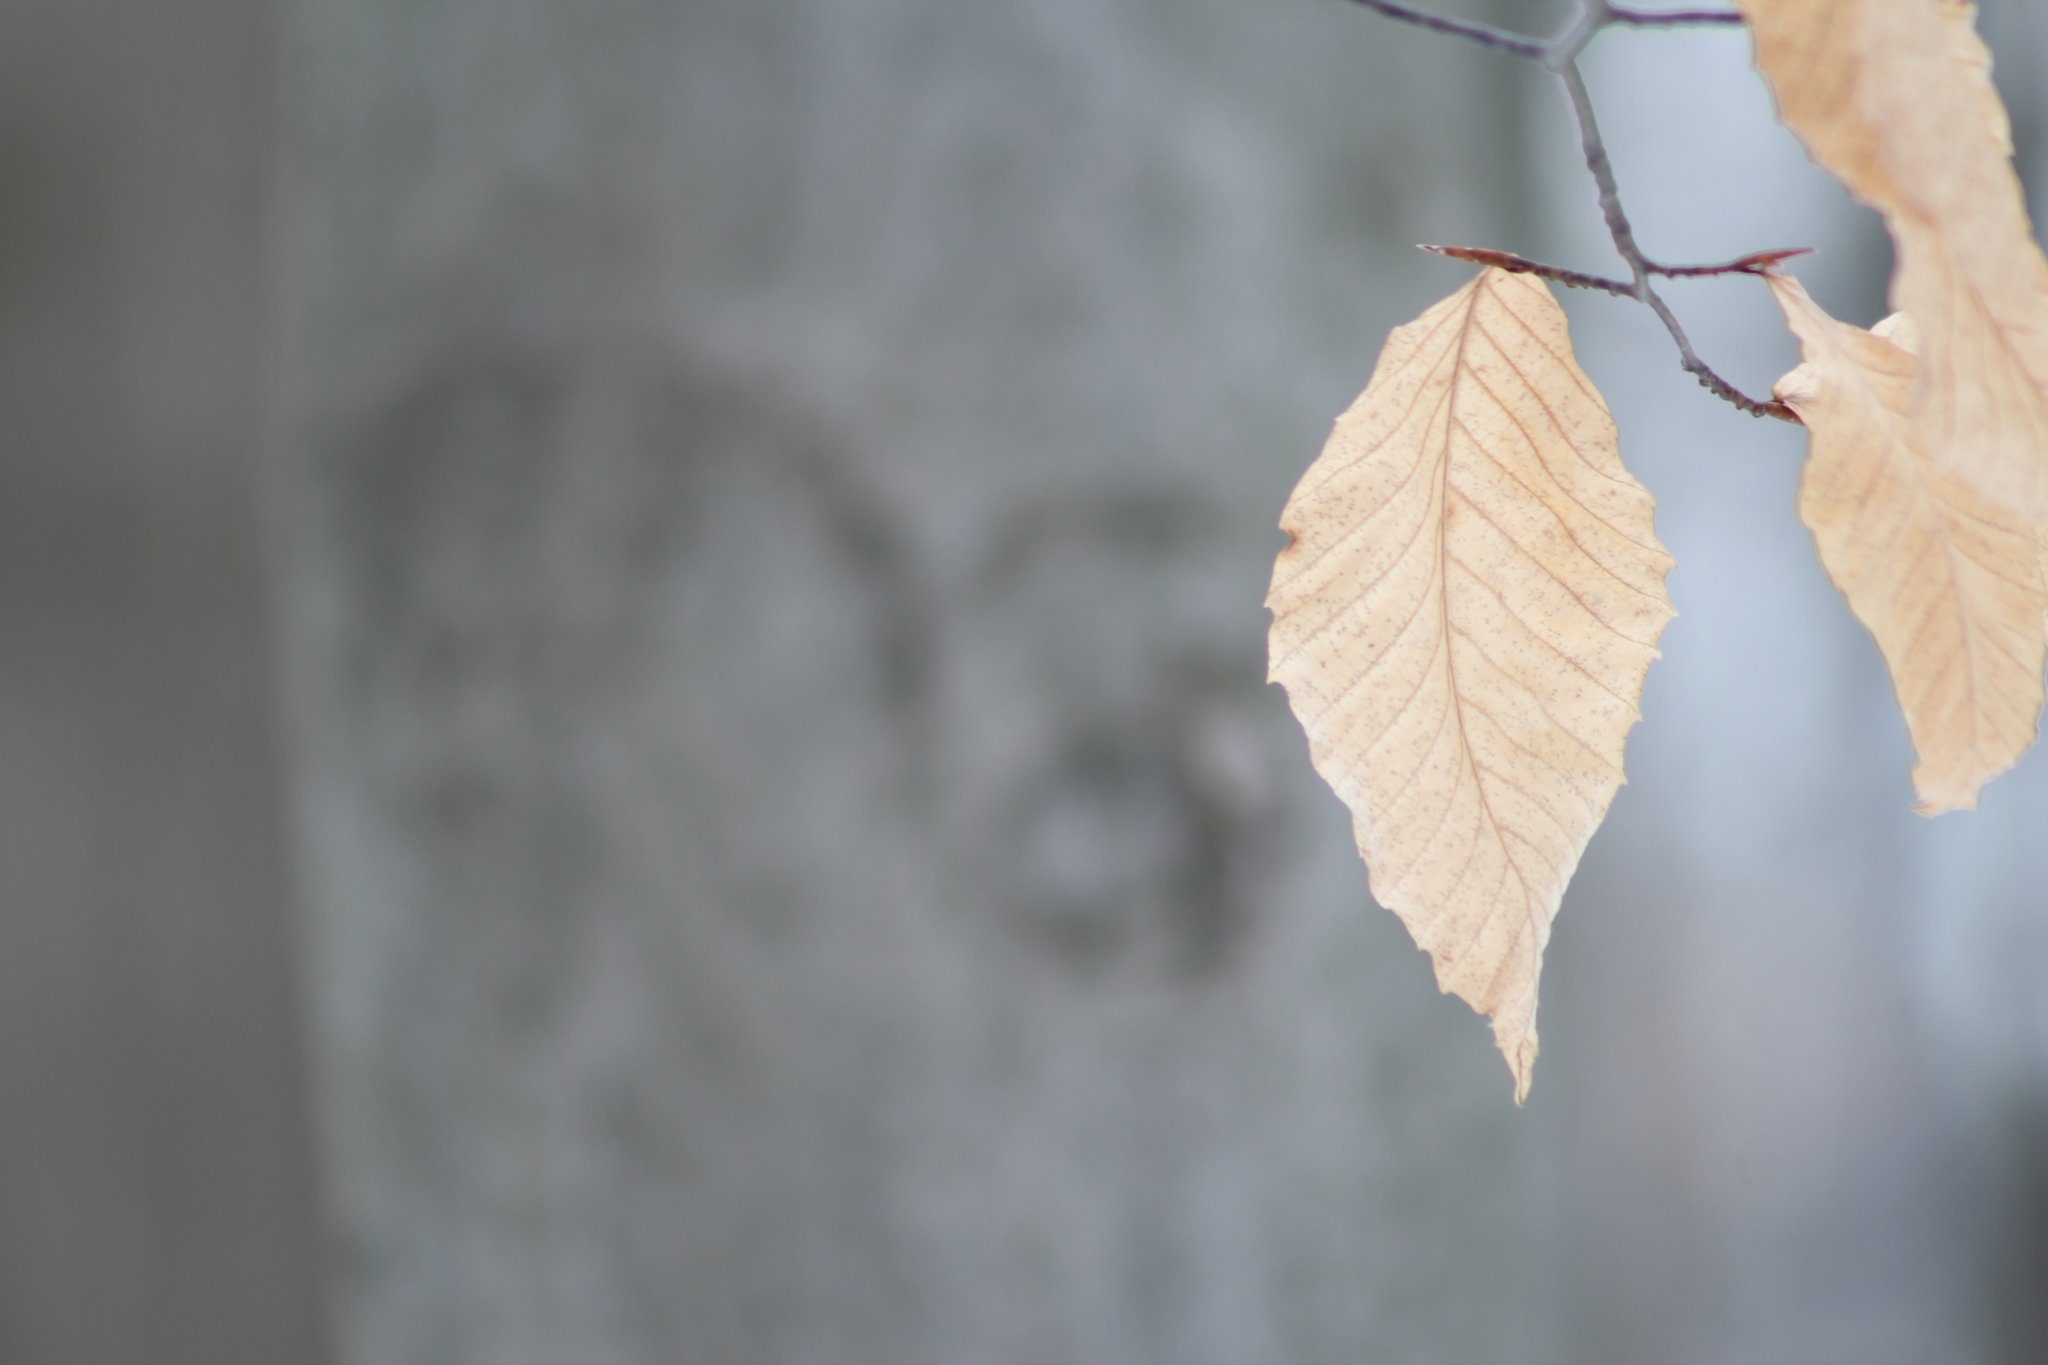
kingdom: Plantae
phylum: Tracheophyta
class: Magnoliopsida
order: Fagales
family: Fagaceae
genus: Fagus
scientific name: Fagus grandifolia
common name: American beech
